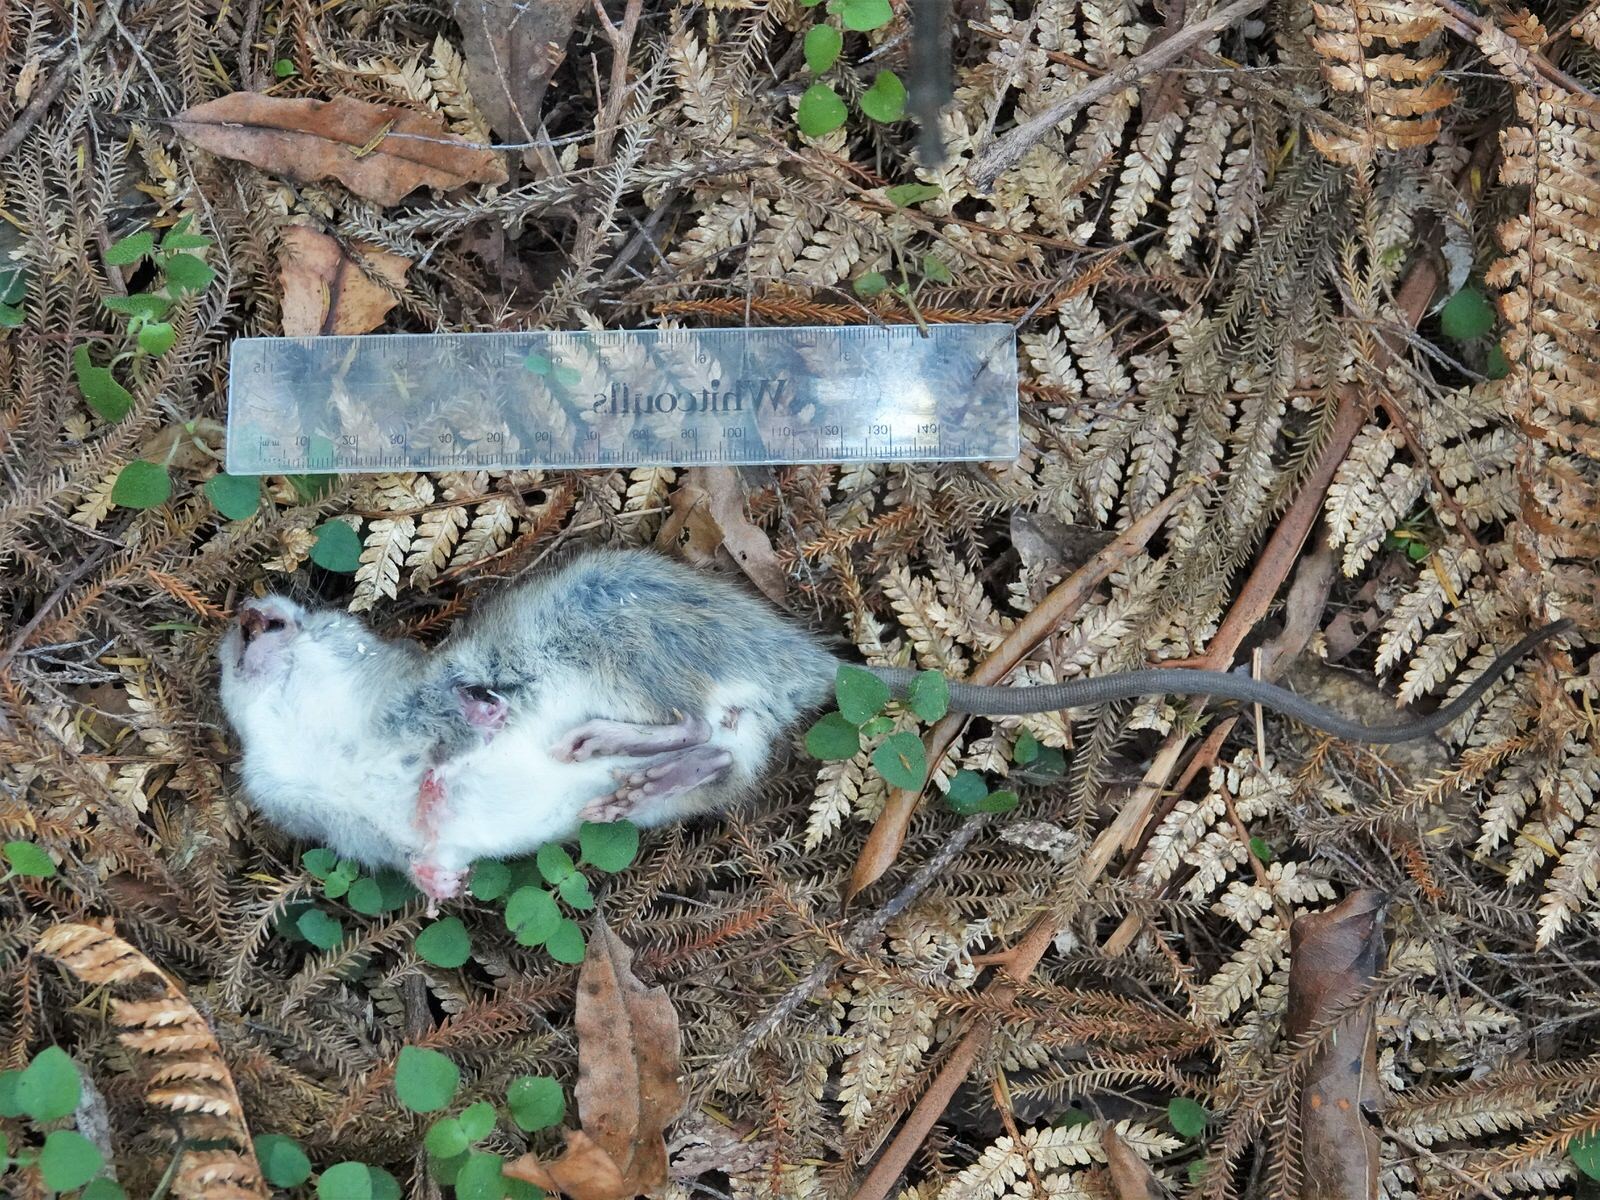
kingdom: Animalia
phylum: Chordata
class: Mammalia
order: Rodentia
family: Muridae
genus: Rattus
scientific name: Rattus rattus
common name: Black rat
